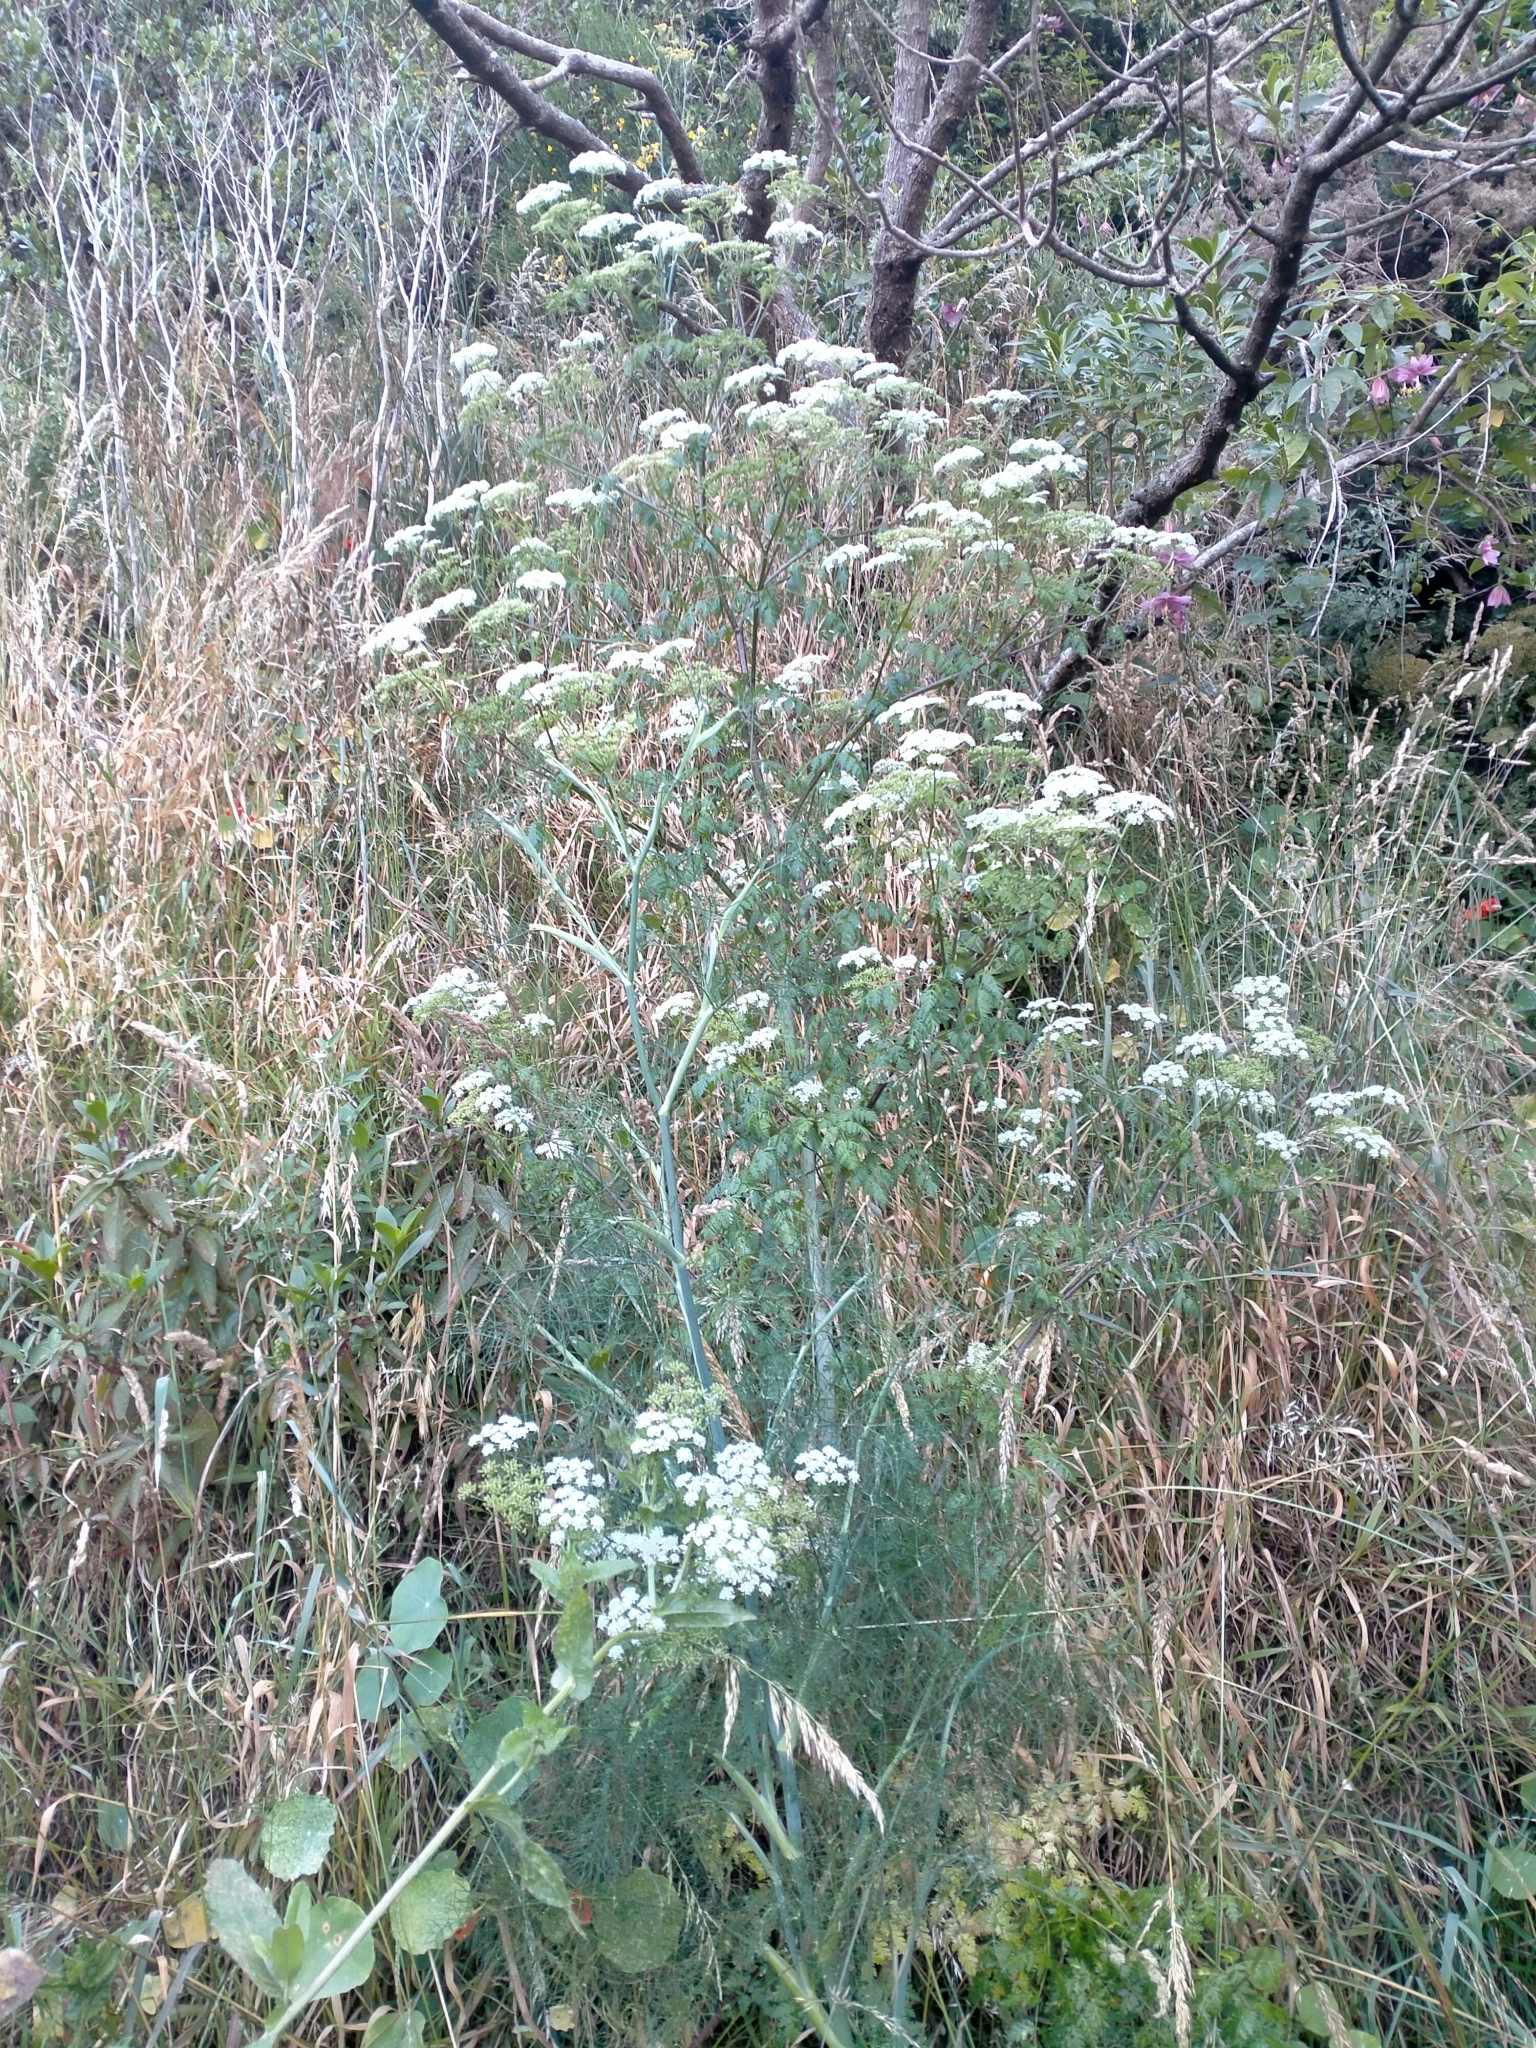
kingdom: Plantae
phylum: Tracheophyta
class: Magnoliopsida
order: Apiales
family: Apiaceae
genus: Conium
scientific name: Conium maculatum
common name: Hemlock
